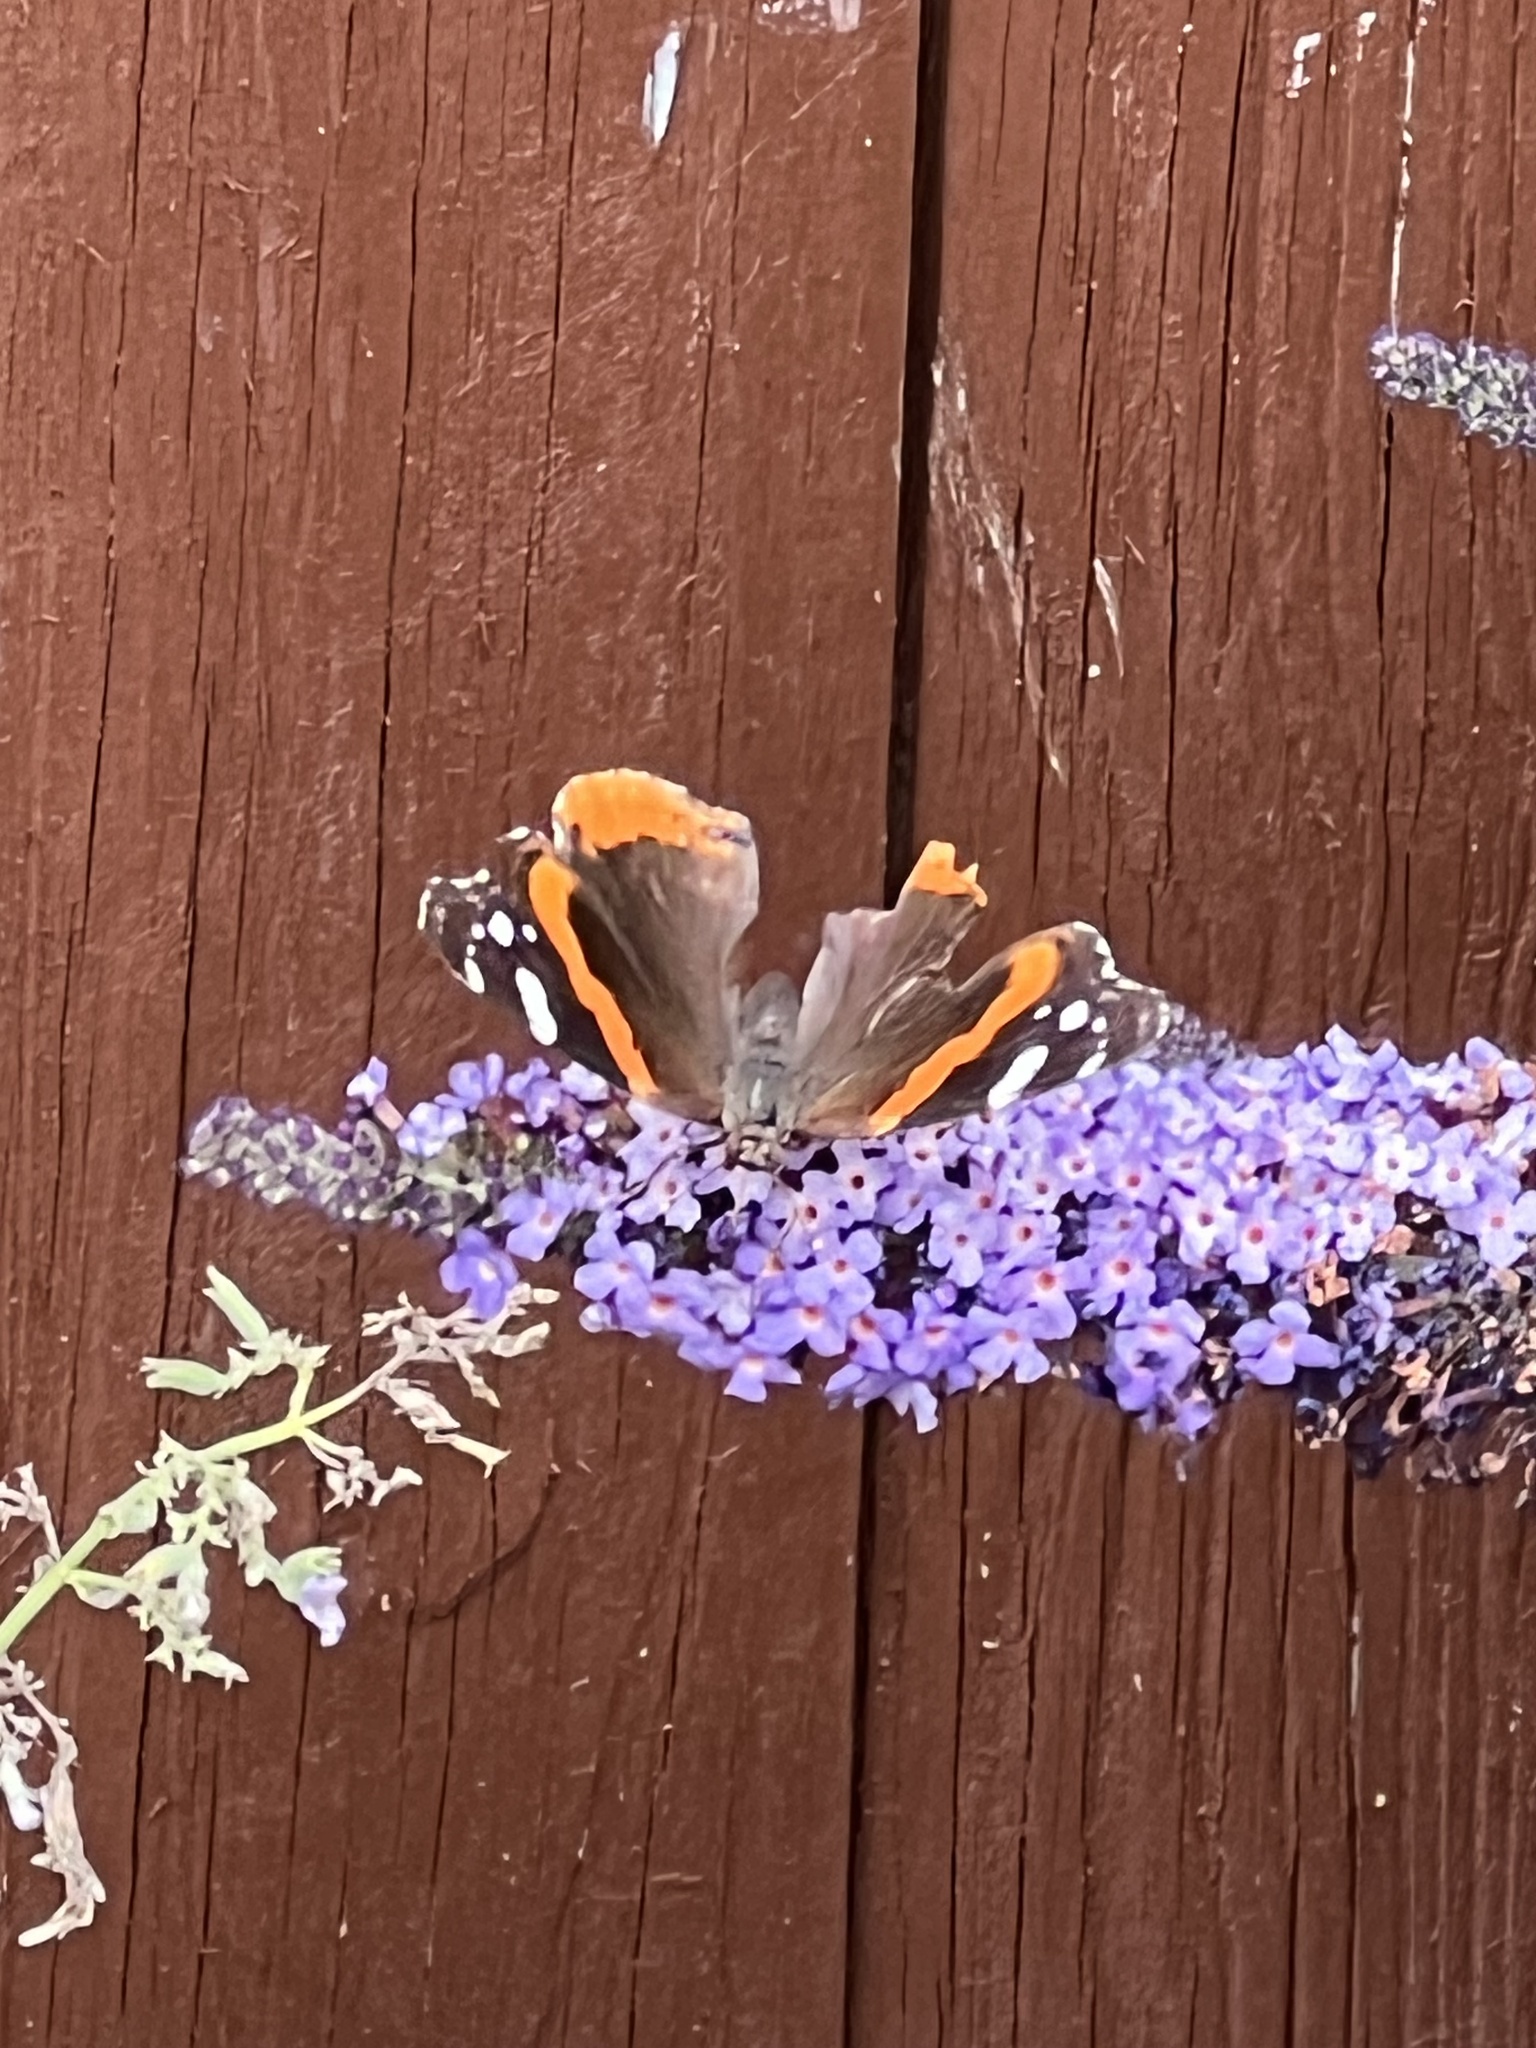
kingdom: Animalia
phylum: Arthropoda
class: Insecta
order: Lepidoptera
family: Nymphalidae
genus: Vanessa
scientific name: Vanessa atalanta
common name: Red admiral
